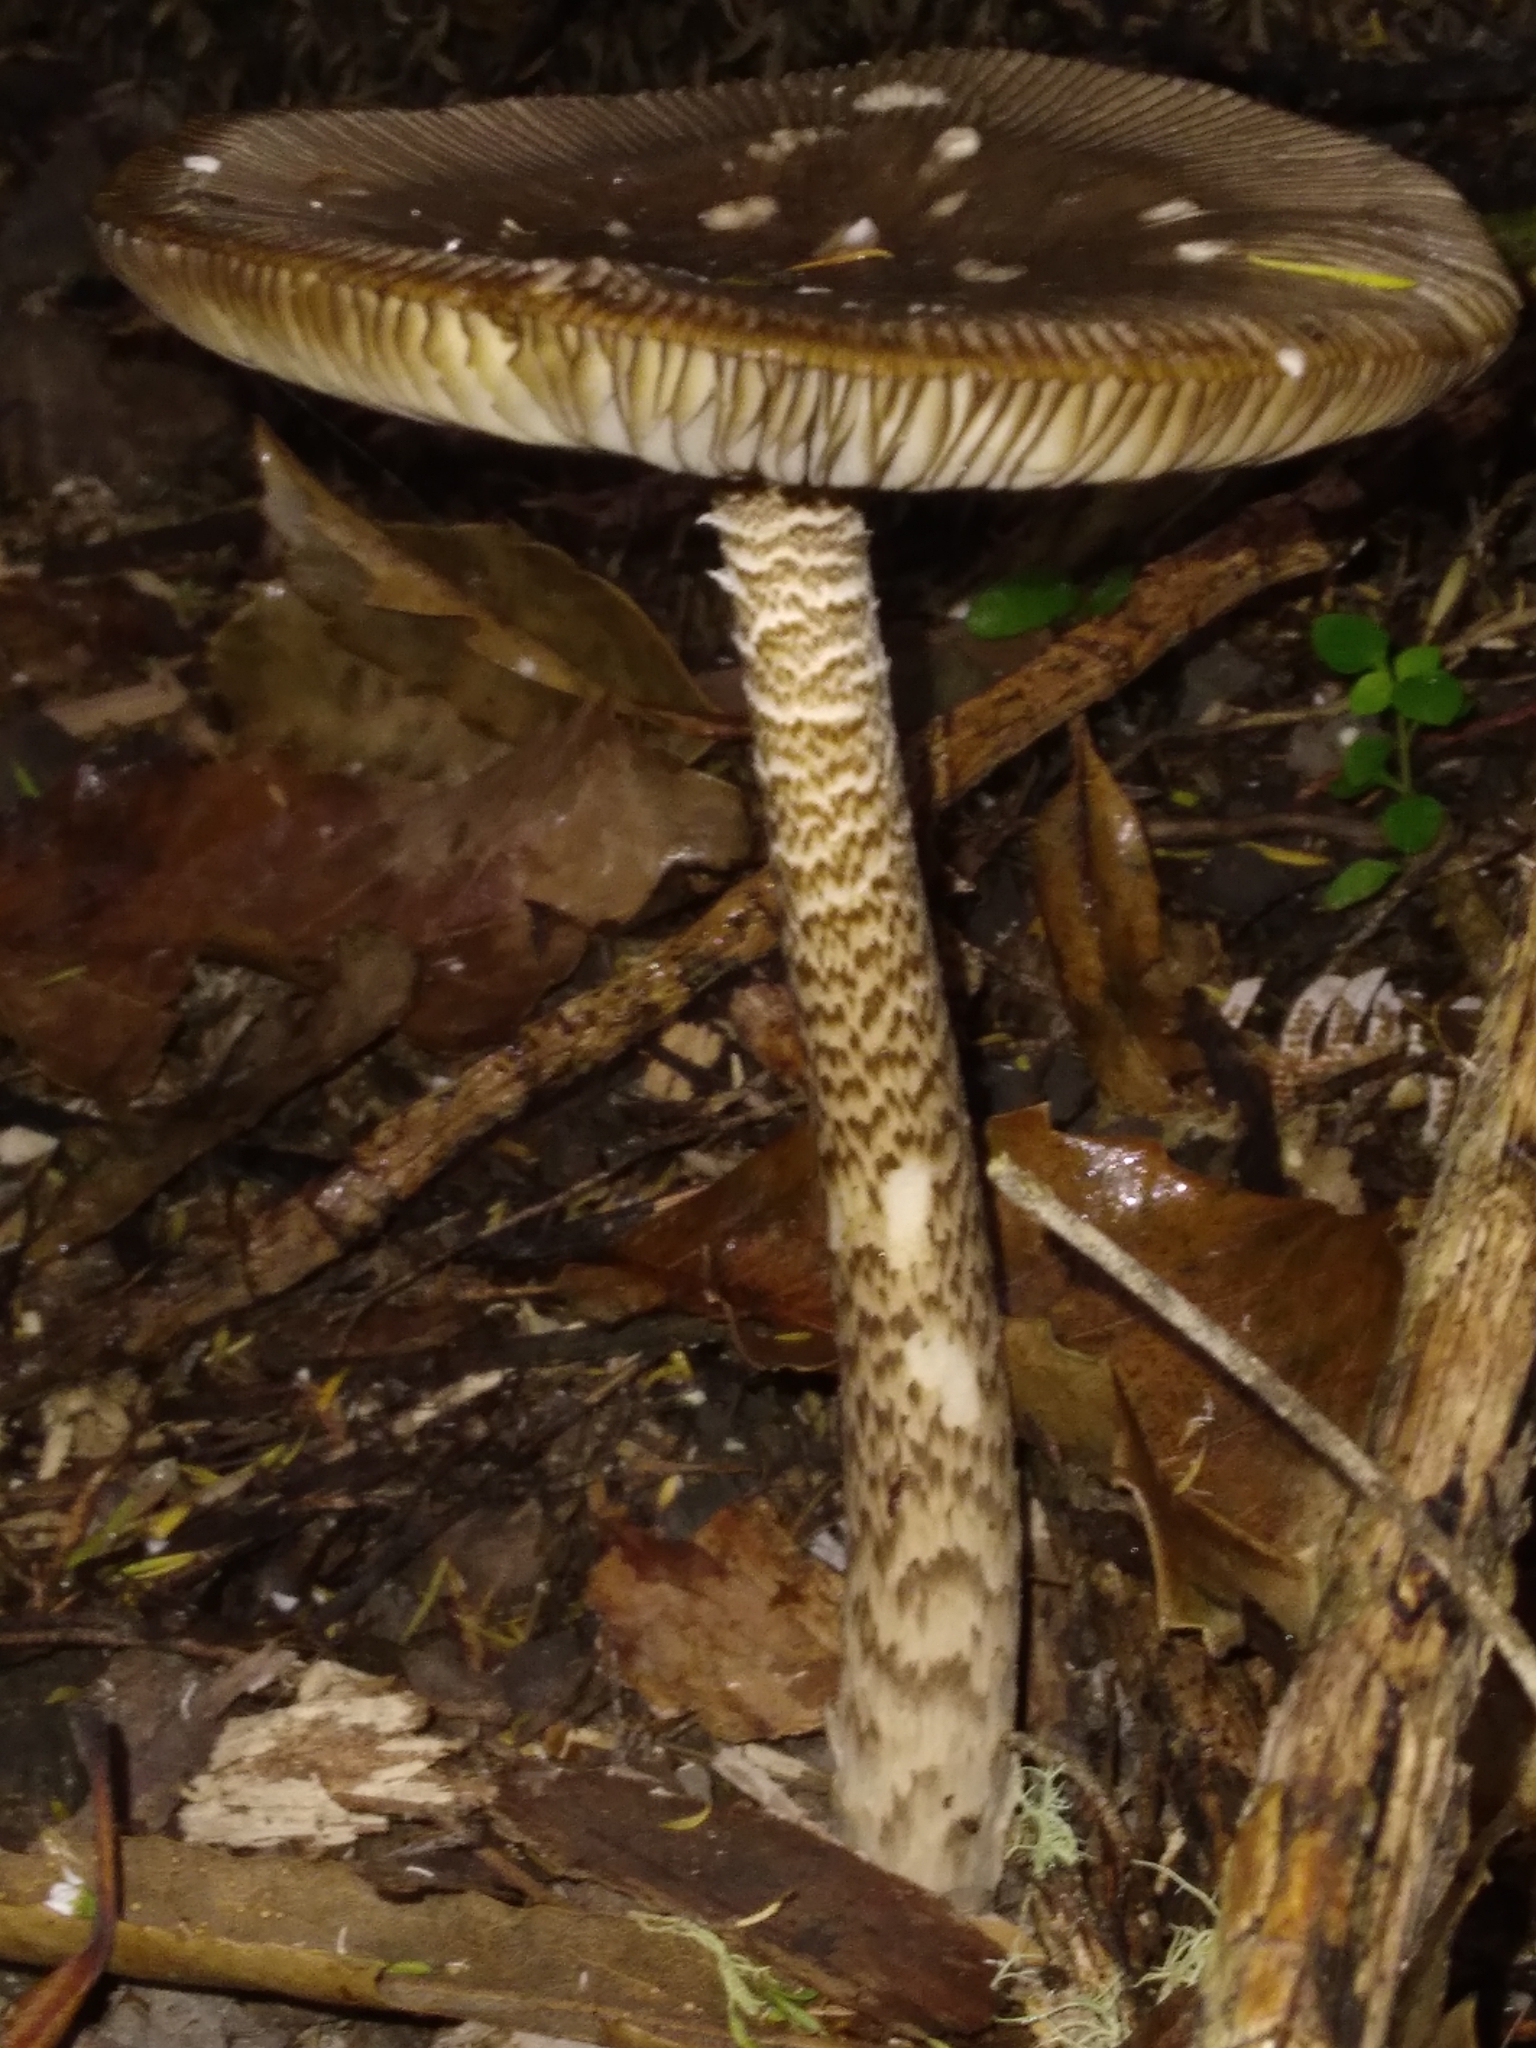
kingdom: Fungi
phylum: Basidiomycota
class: Agaricomycetes
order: Agaricales
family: Amanitaceae
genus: Amanita
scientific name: Amanita pekeoides
